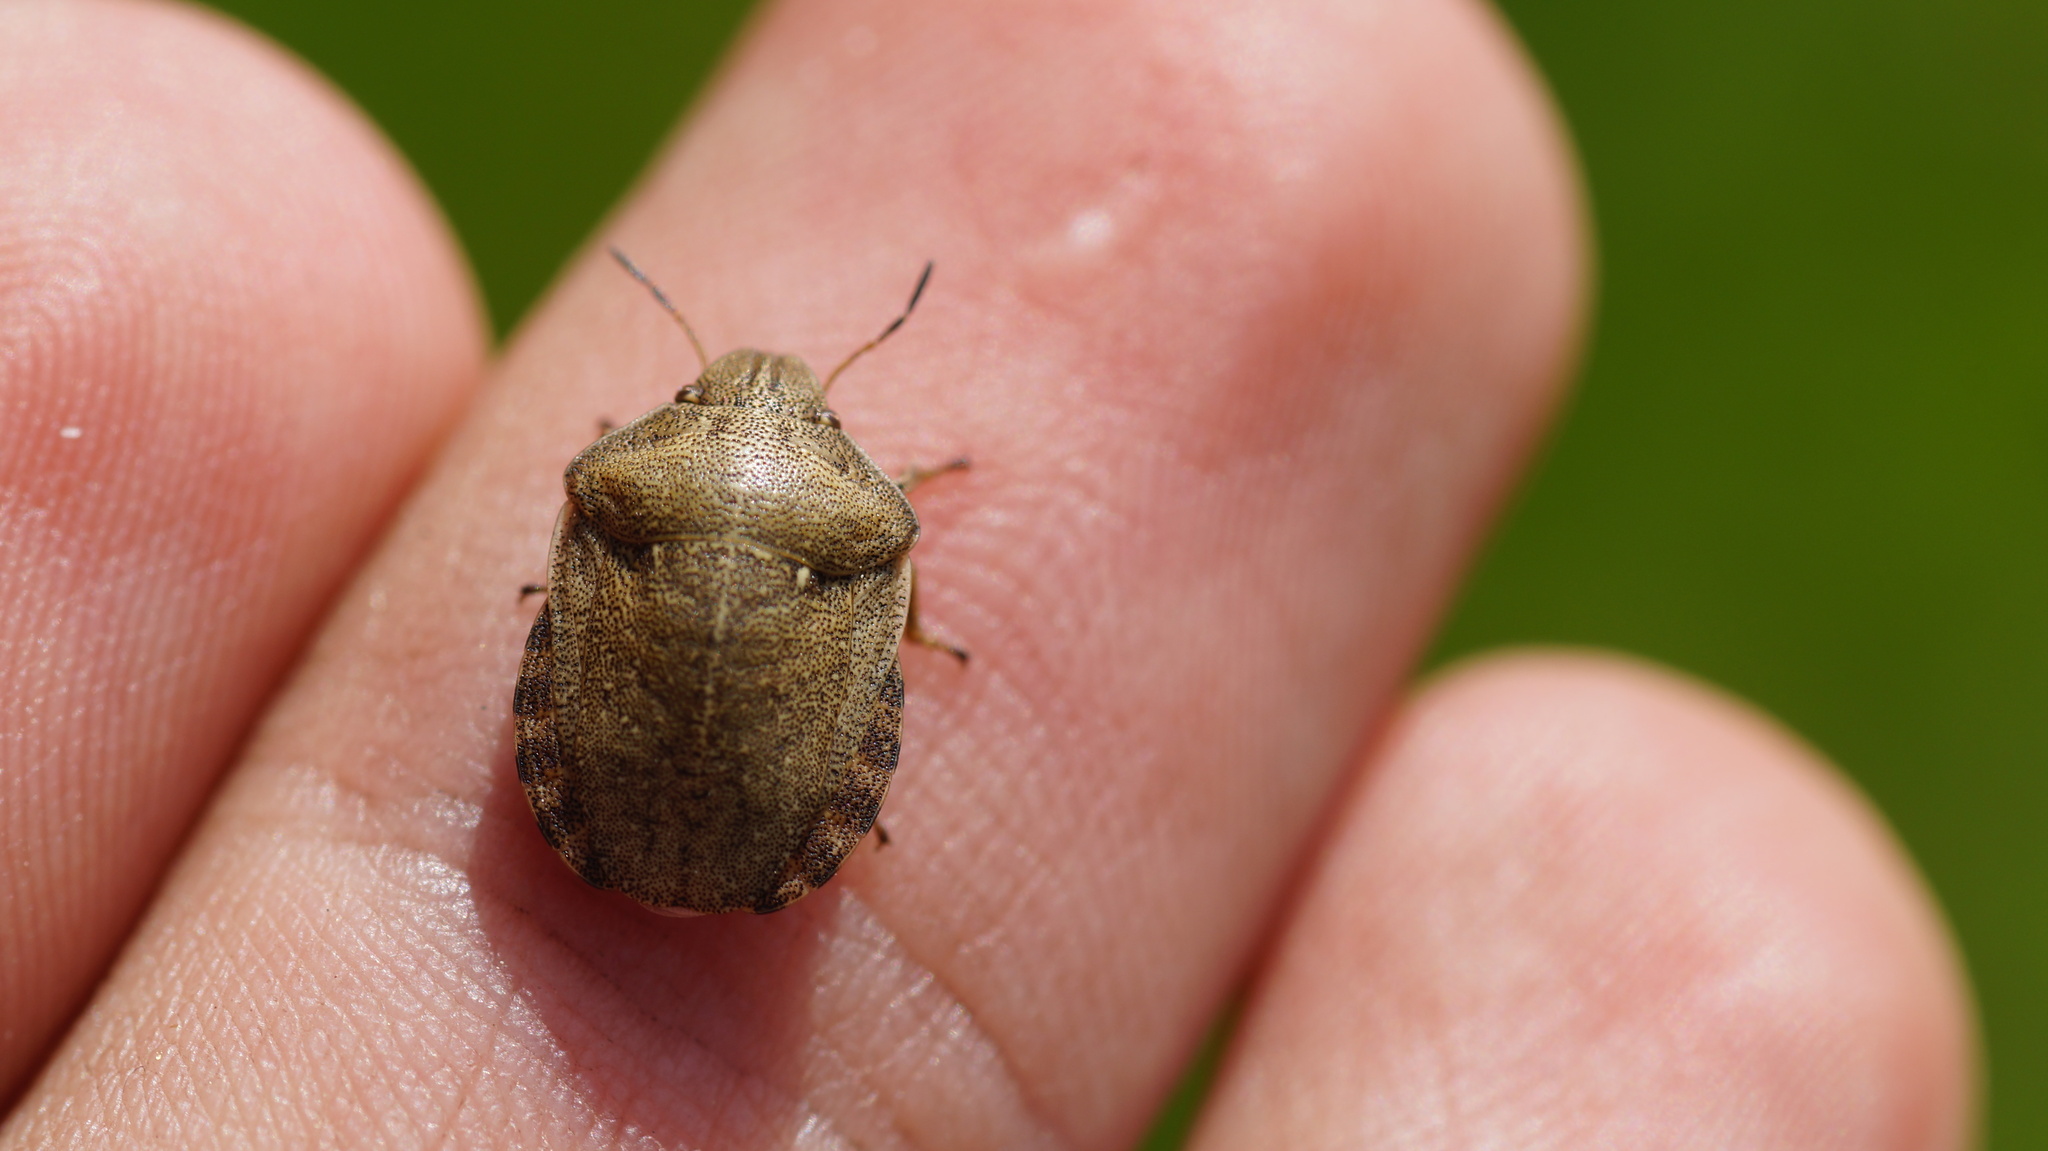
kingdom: Animalia
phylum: Arthropoda
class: Insecta
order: Hemiptera
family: Scutelleridae
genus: Eurygaster
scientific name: Eurygaster testudinaria
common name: Tortoise bug
